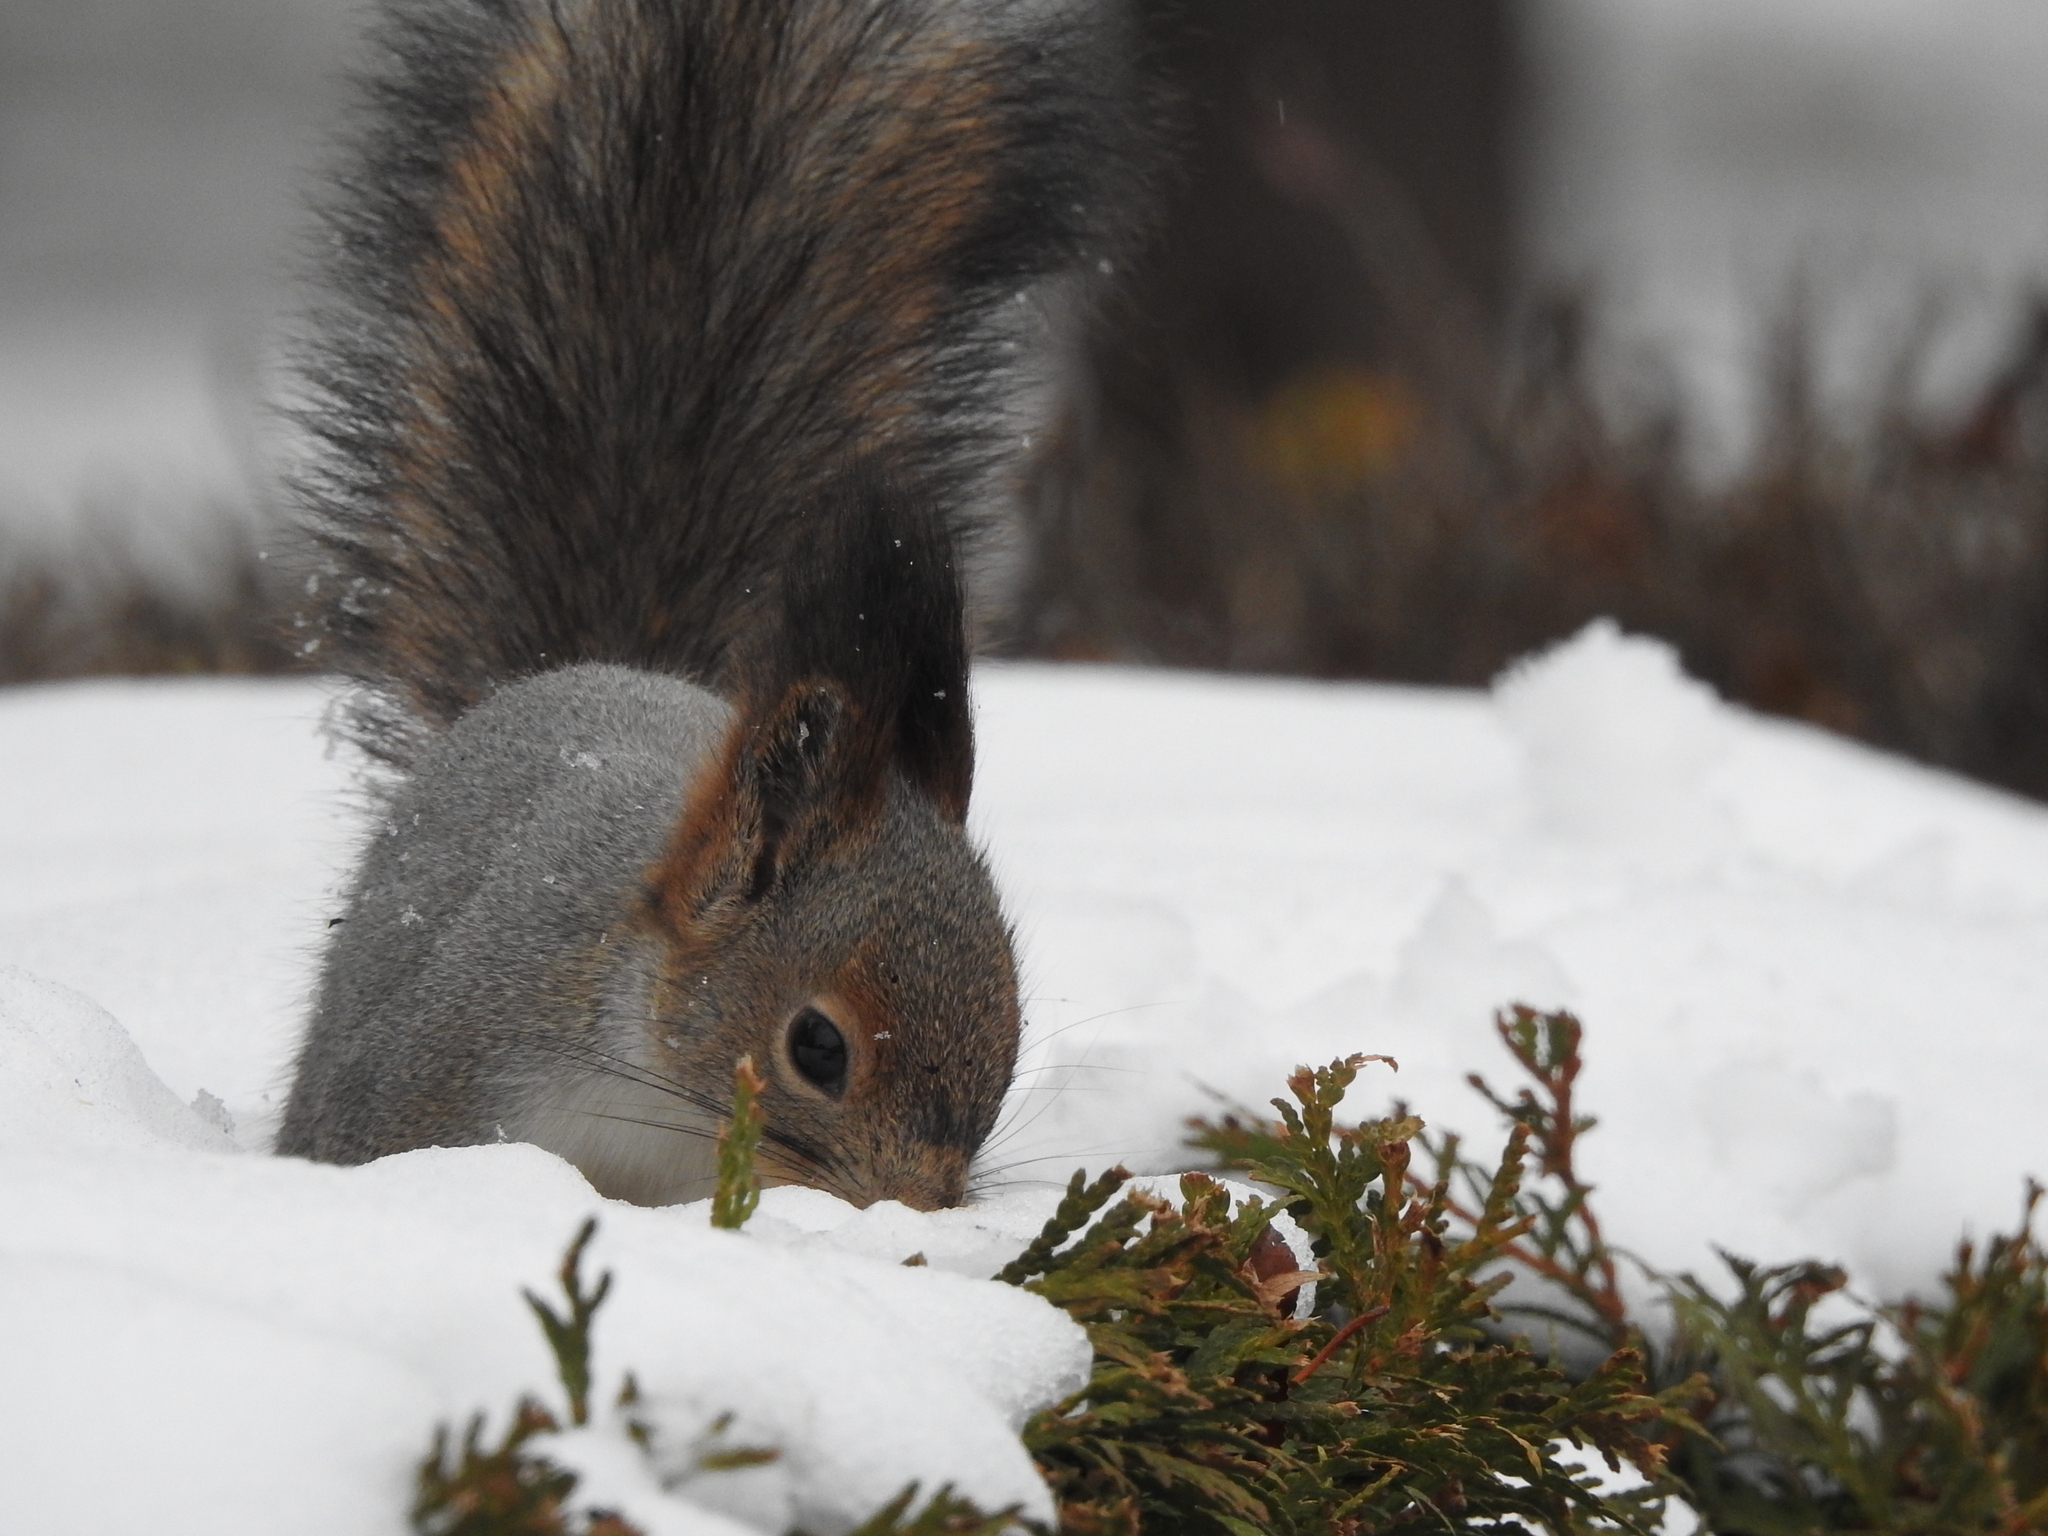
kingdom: Animalia
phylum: Chordata
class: Mammalia
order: Rodentia
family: Sciuridae
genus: Sciurus
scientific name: Sciurus vulgaris
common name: Eurasian red squirrel
